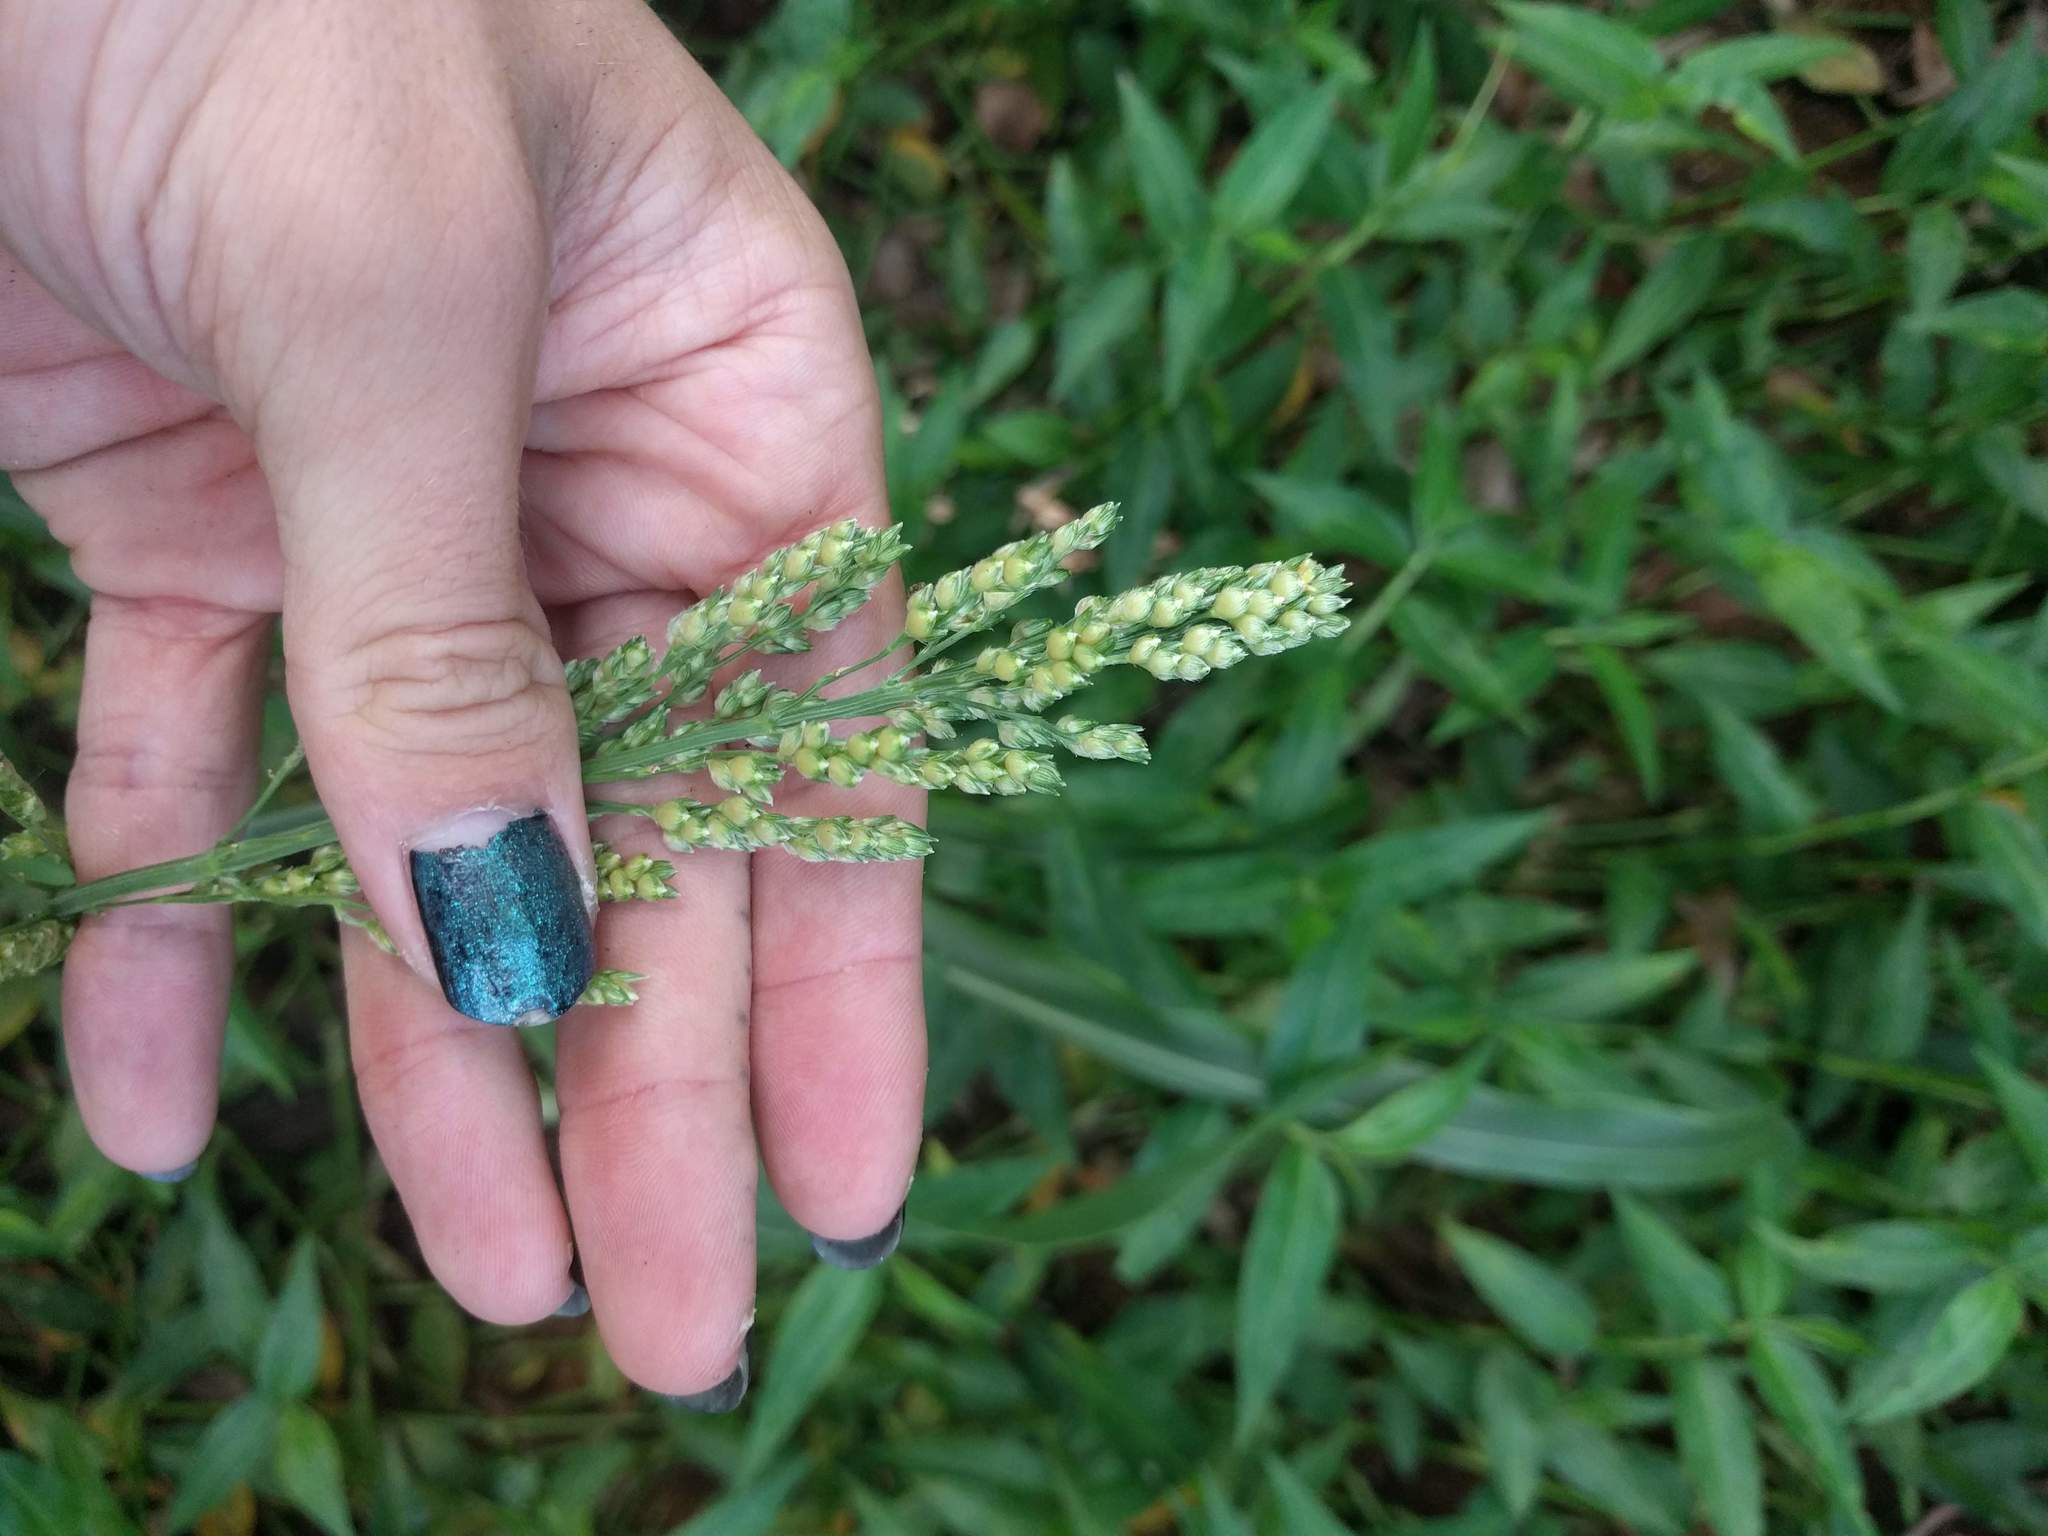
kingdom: Plantae
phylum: Tracheophyta
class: Liliopsida
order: Poales
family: Poaceae
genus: Sorghum
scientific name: Sorghum bicolor
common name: Sorghum
